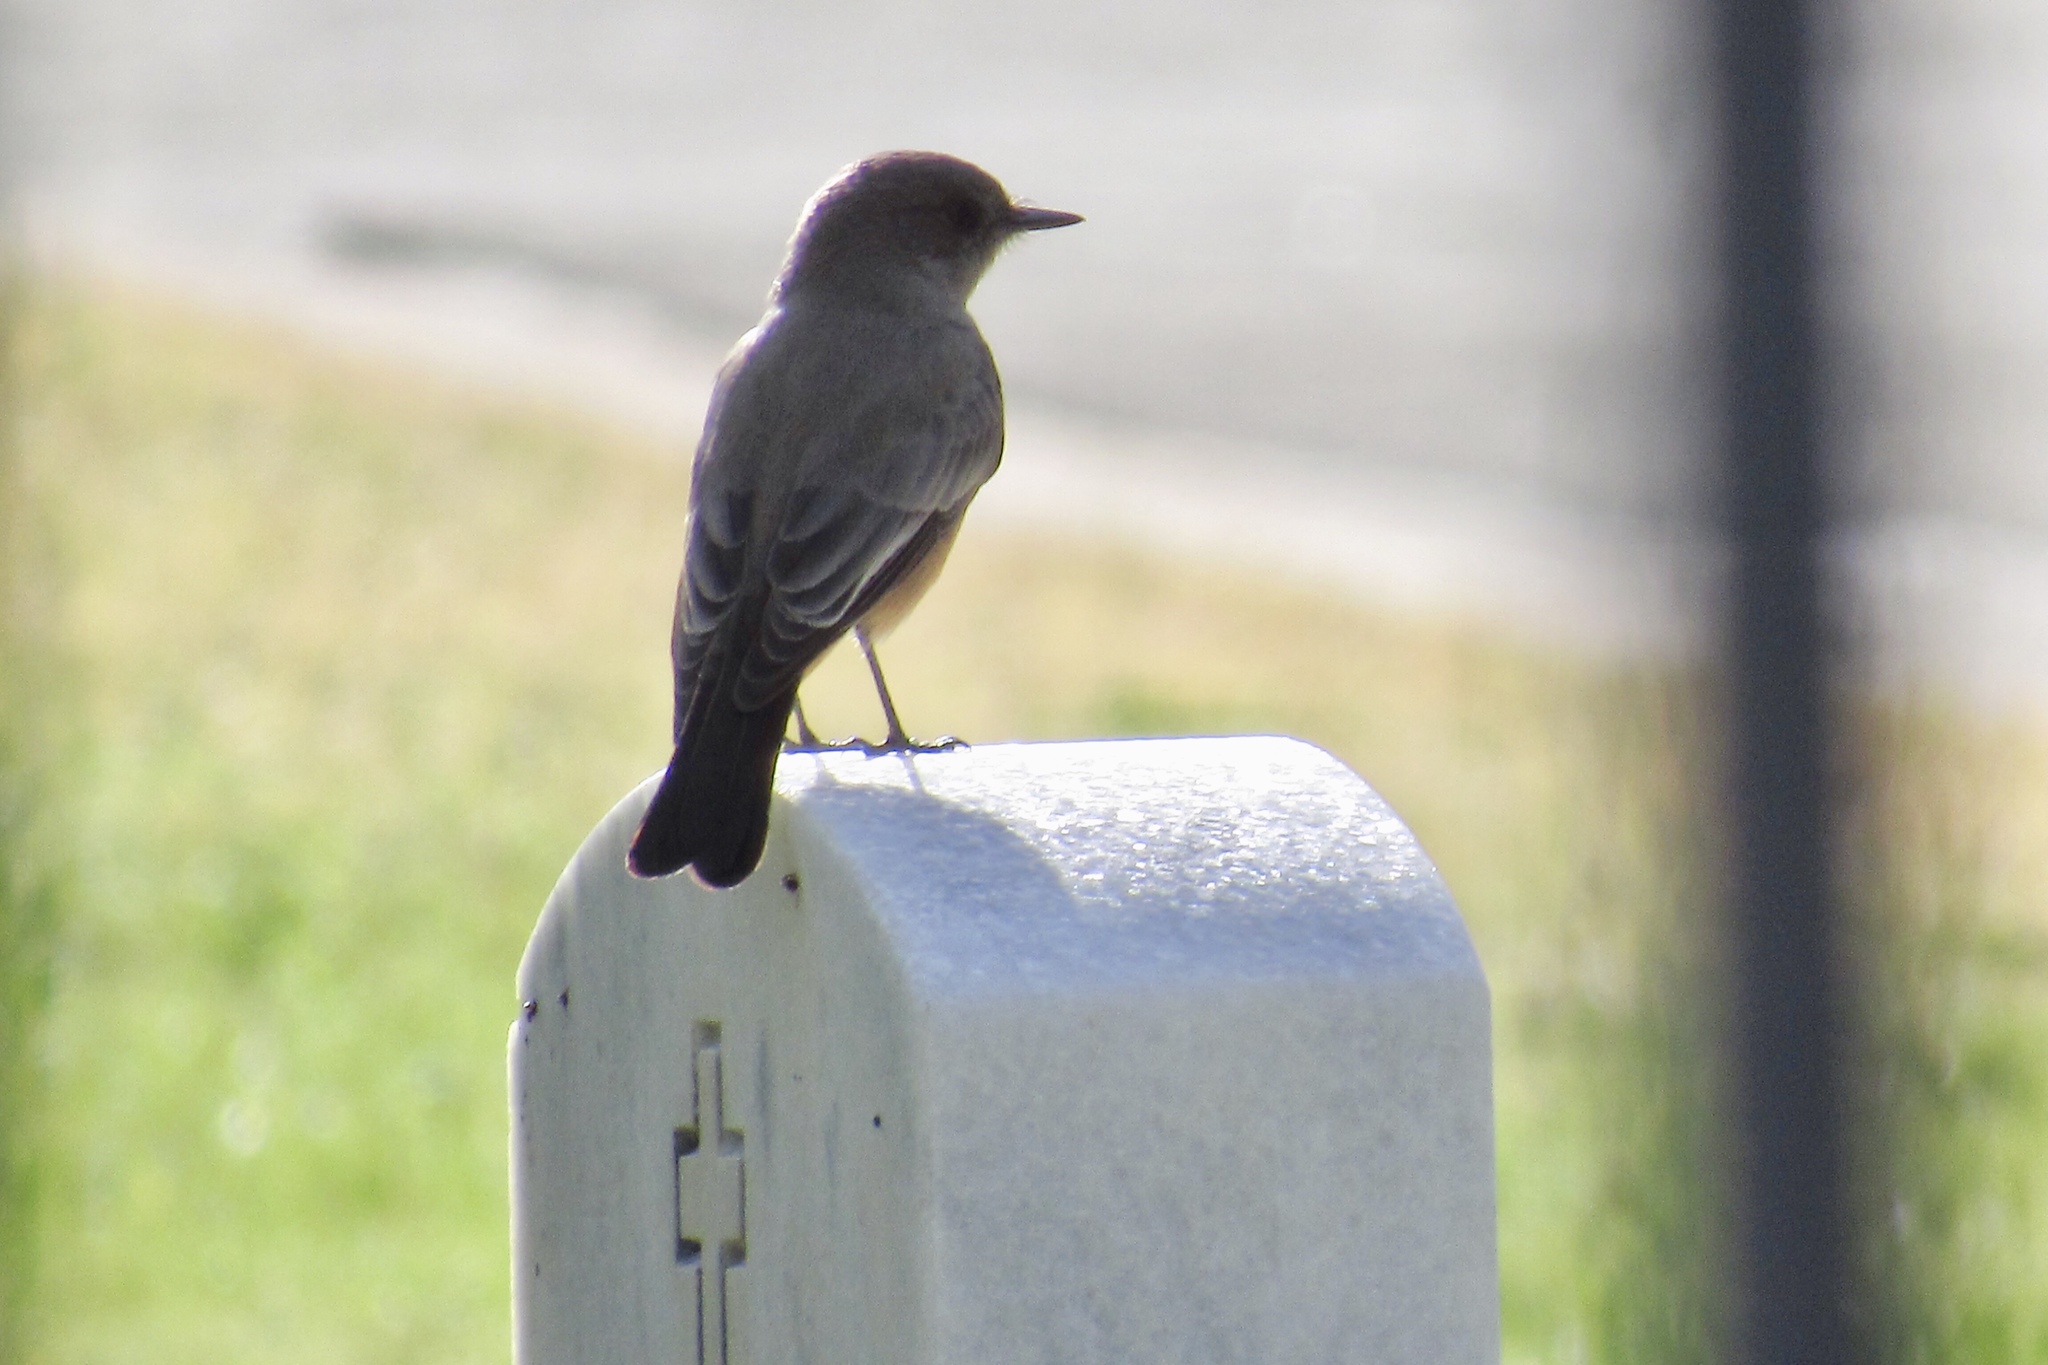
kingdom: Animalia
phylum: Chordata
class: Aves
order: Passeriformes
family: Tyrannidae
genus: Sayornis
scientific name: Sayornis saya
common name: Say's phoebe
